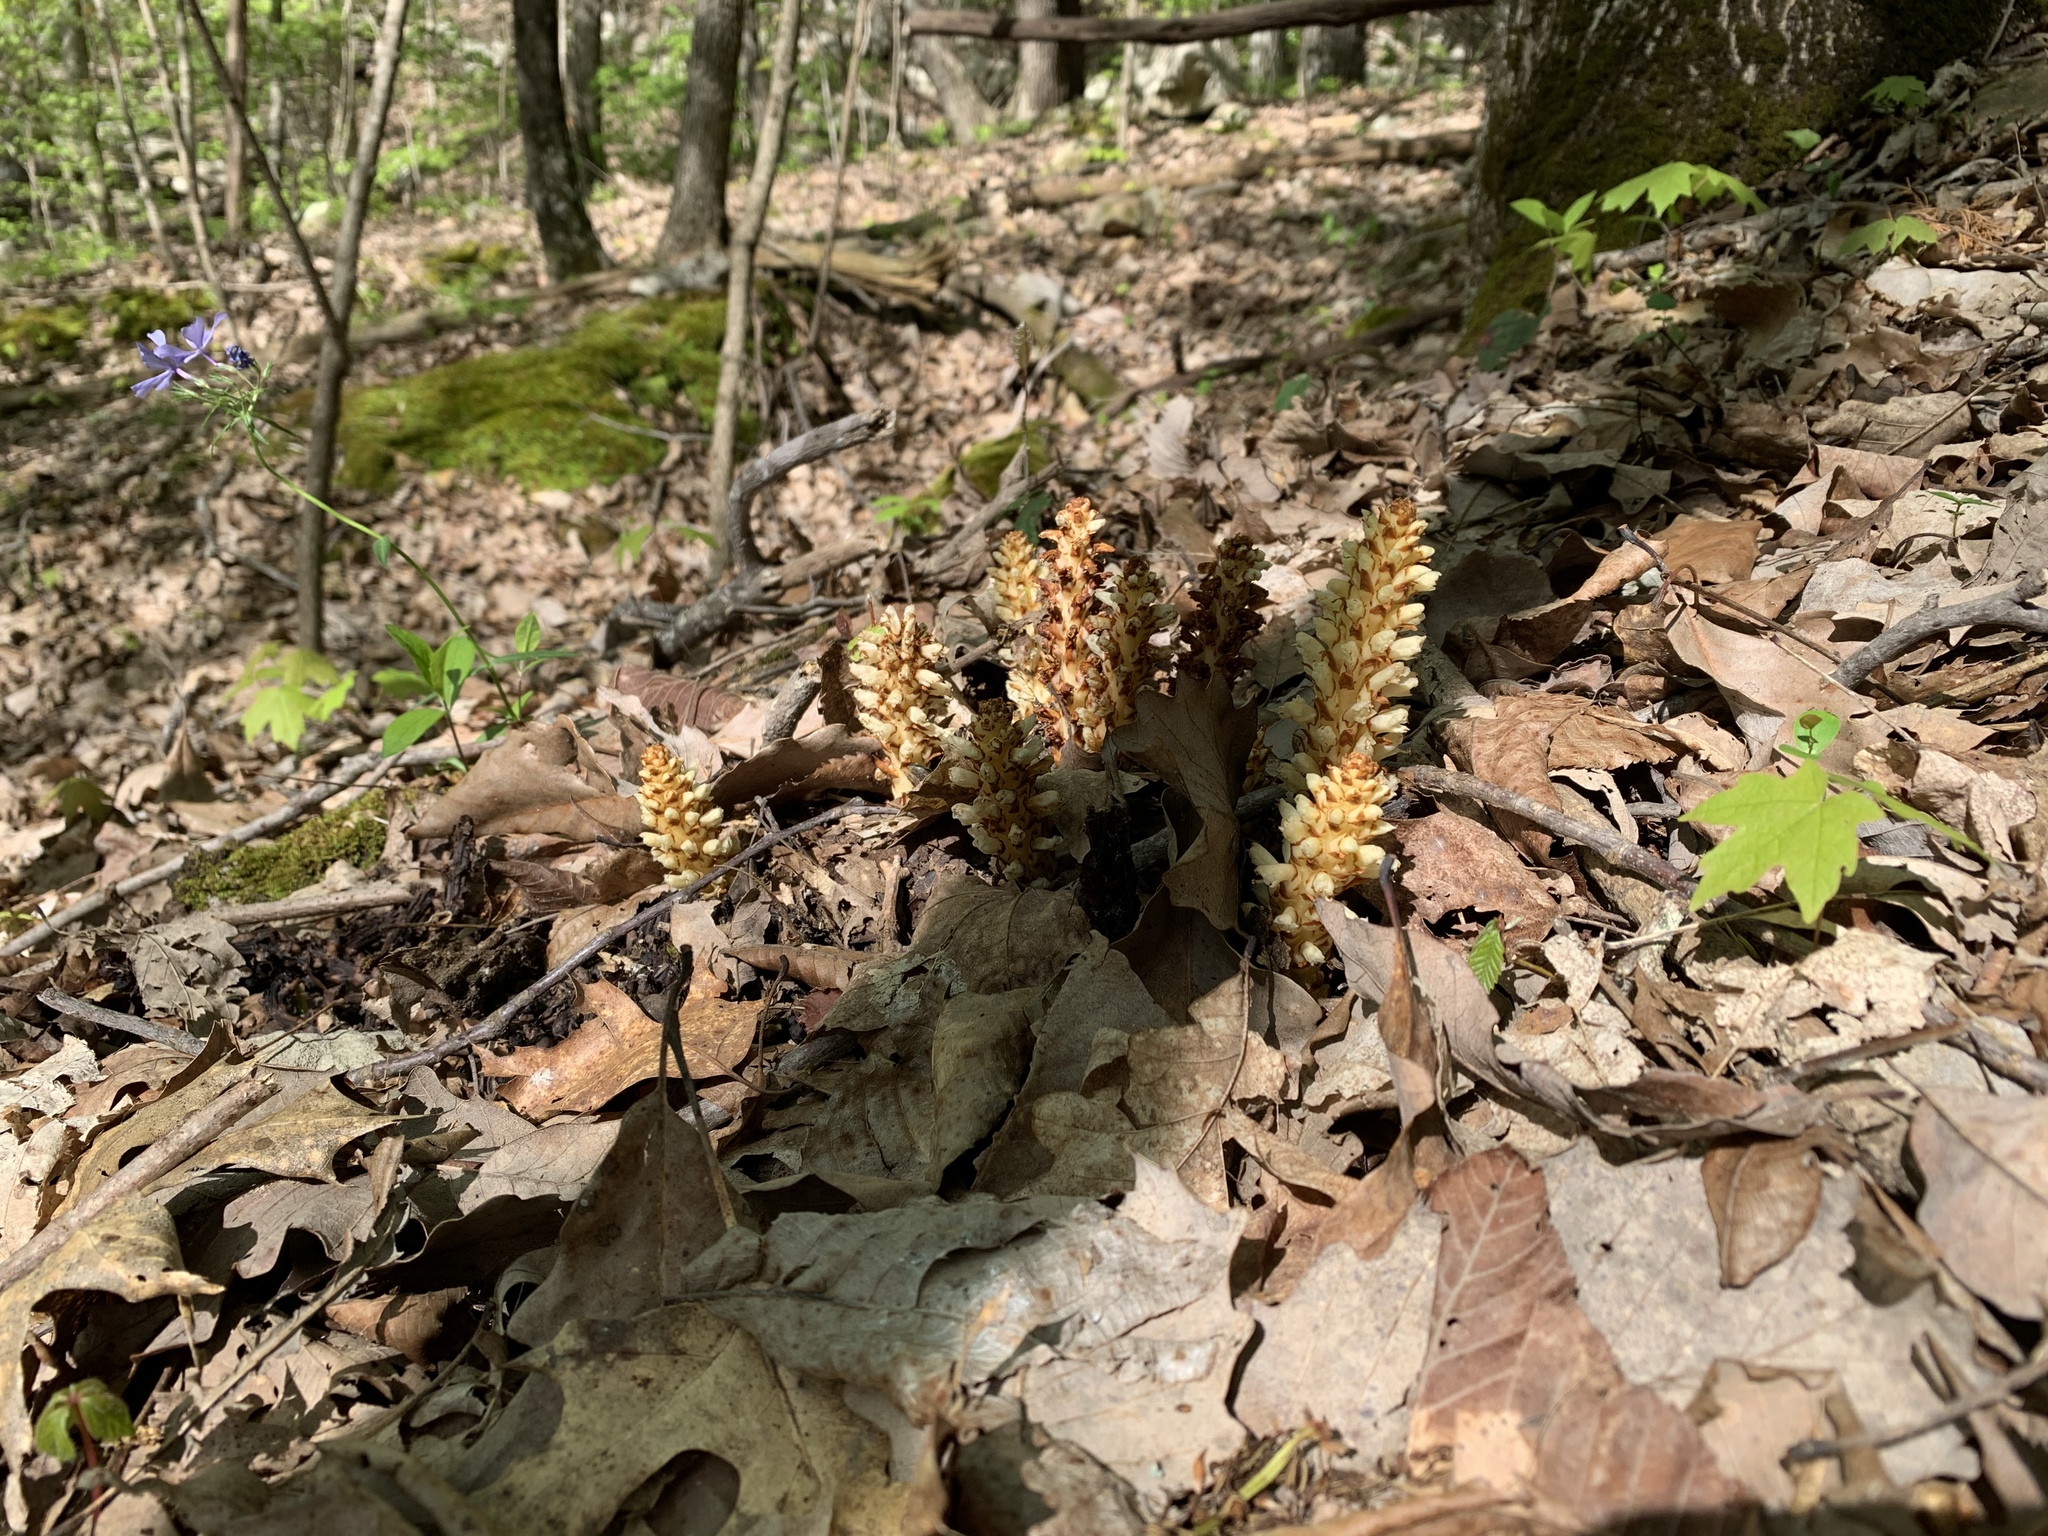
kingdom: Plantae
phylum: Tracheophyta
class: Magnoliopsida
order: Lamiales
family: Orobanchaceae
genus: Conopholis
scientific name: Conopholis americana
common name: American cancer-root
